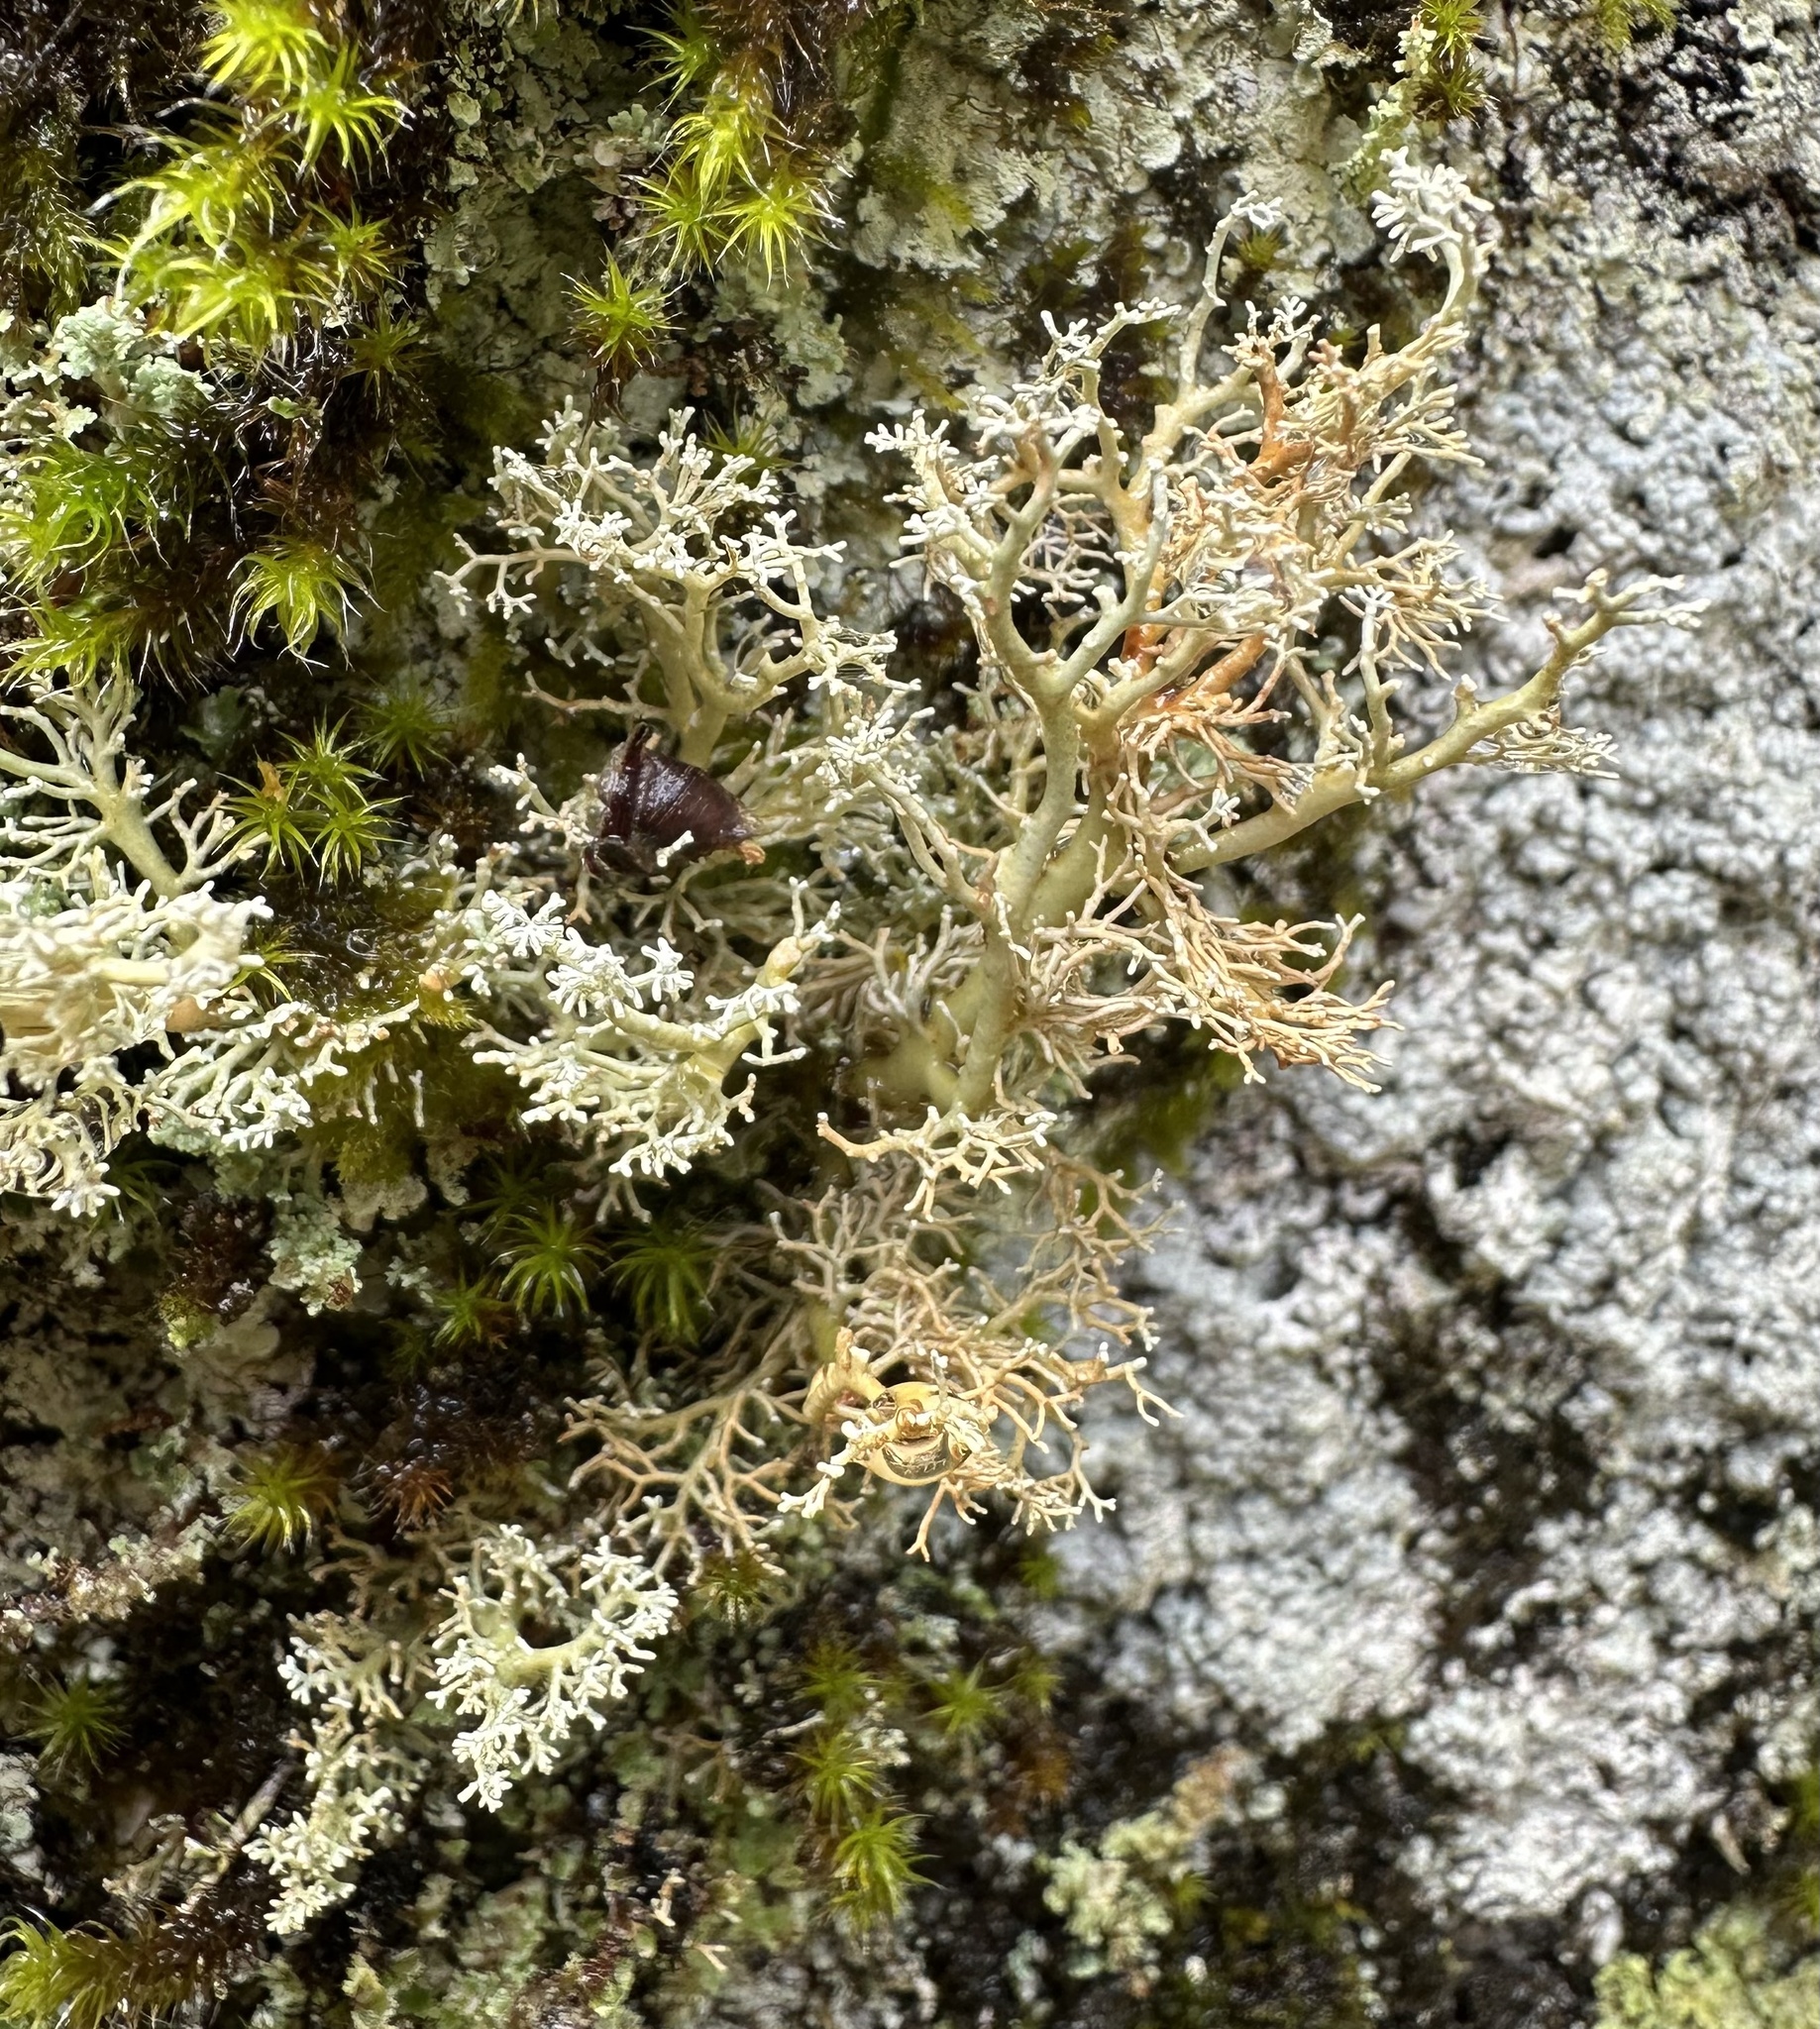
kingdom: Fungi
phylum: Ascomycota
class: Lecanoromycetes
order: Lecanorales
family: Sphaerophoraceae
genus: Sphaerophorus
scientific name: Sphaerophorus globosus
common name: Globe ball lichen
